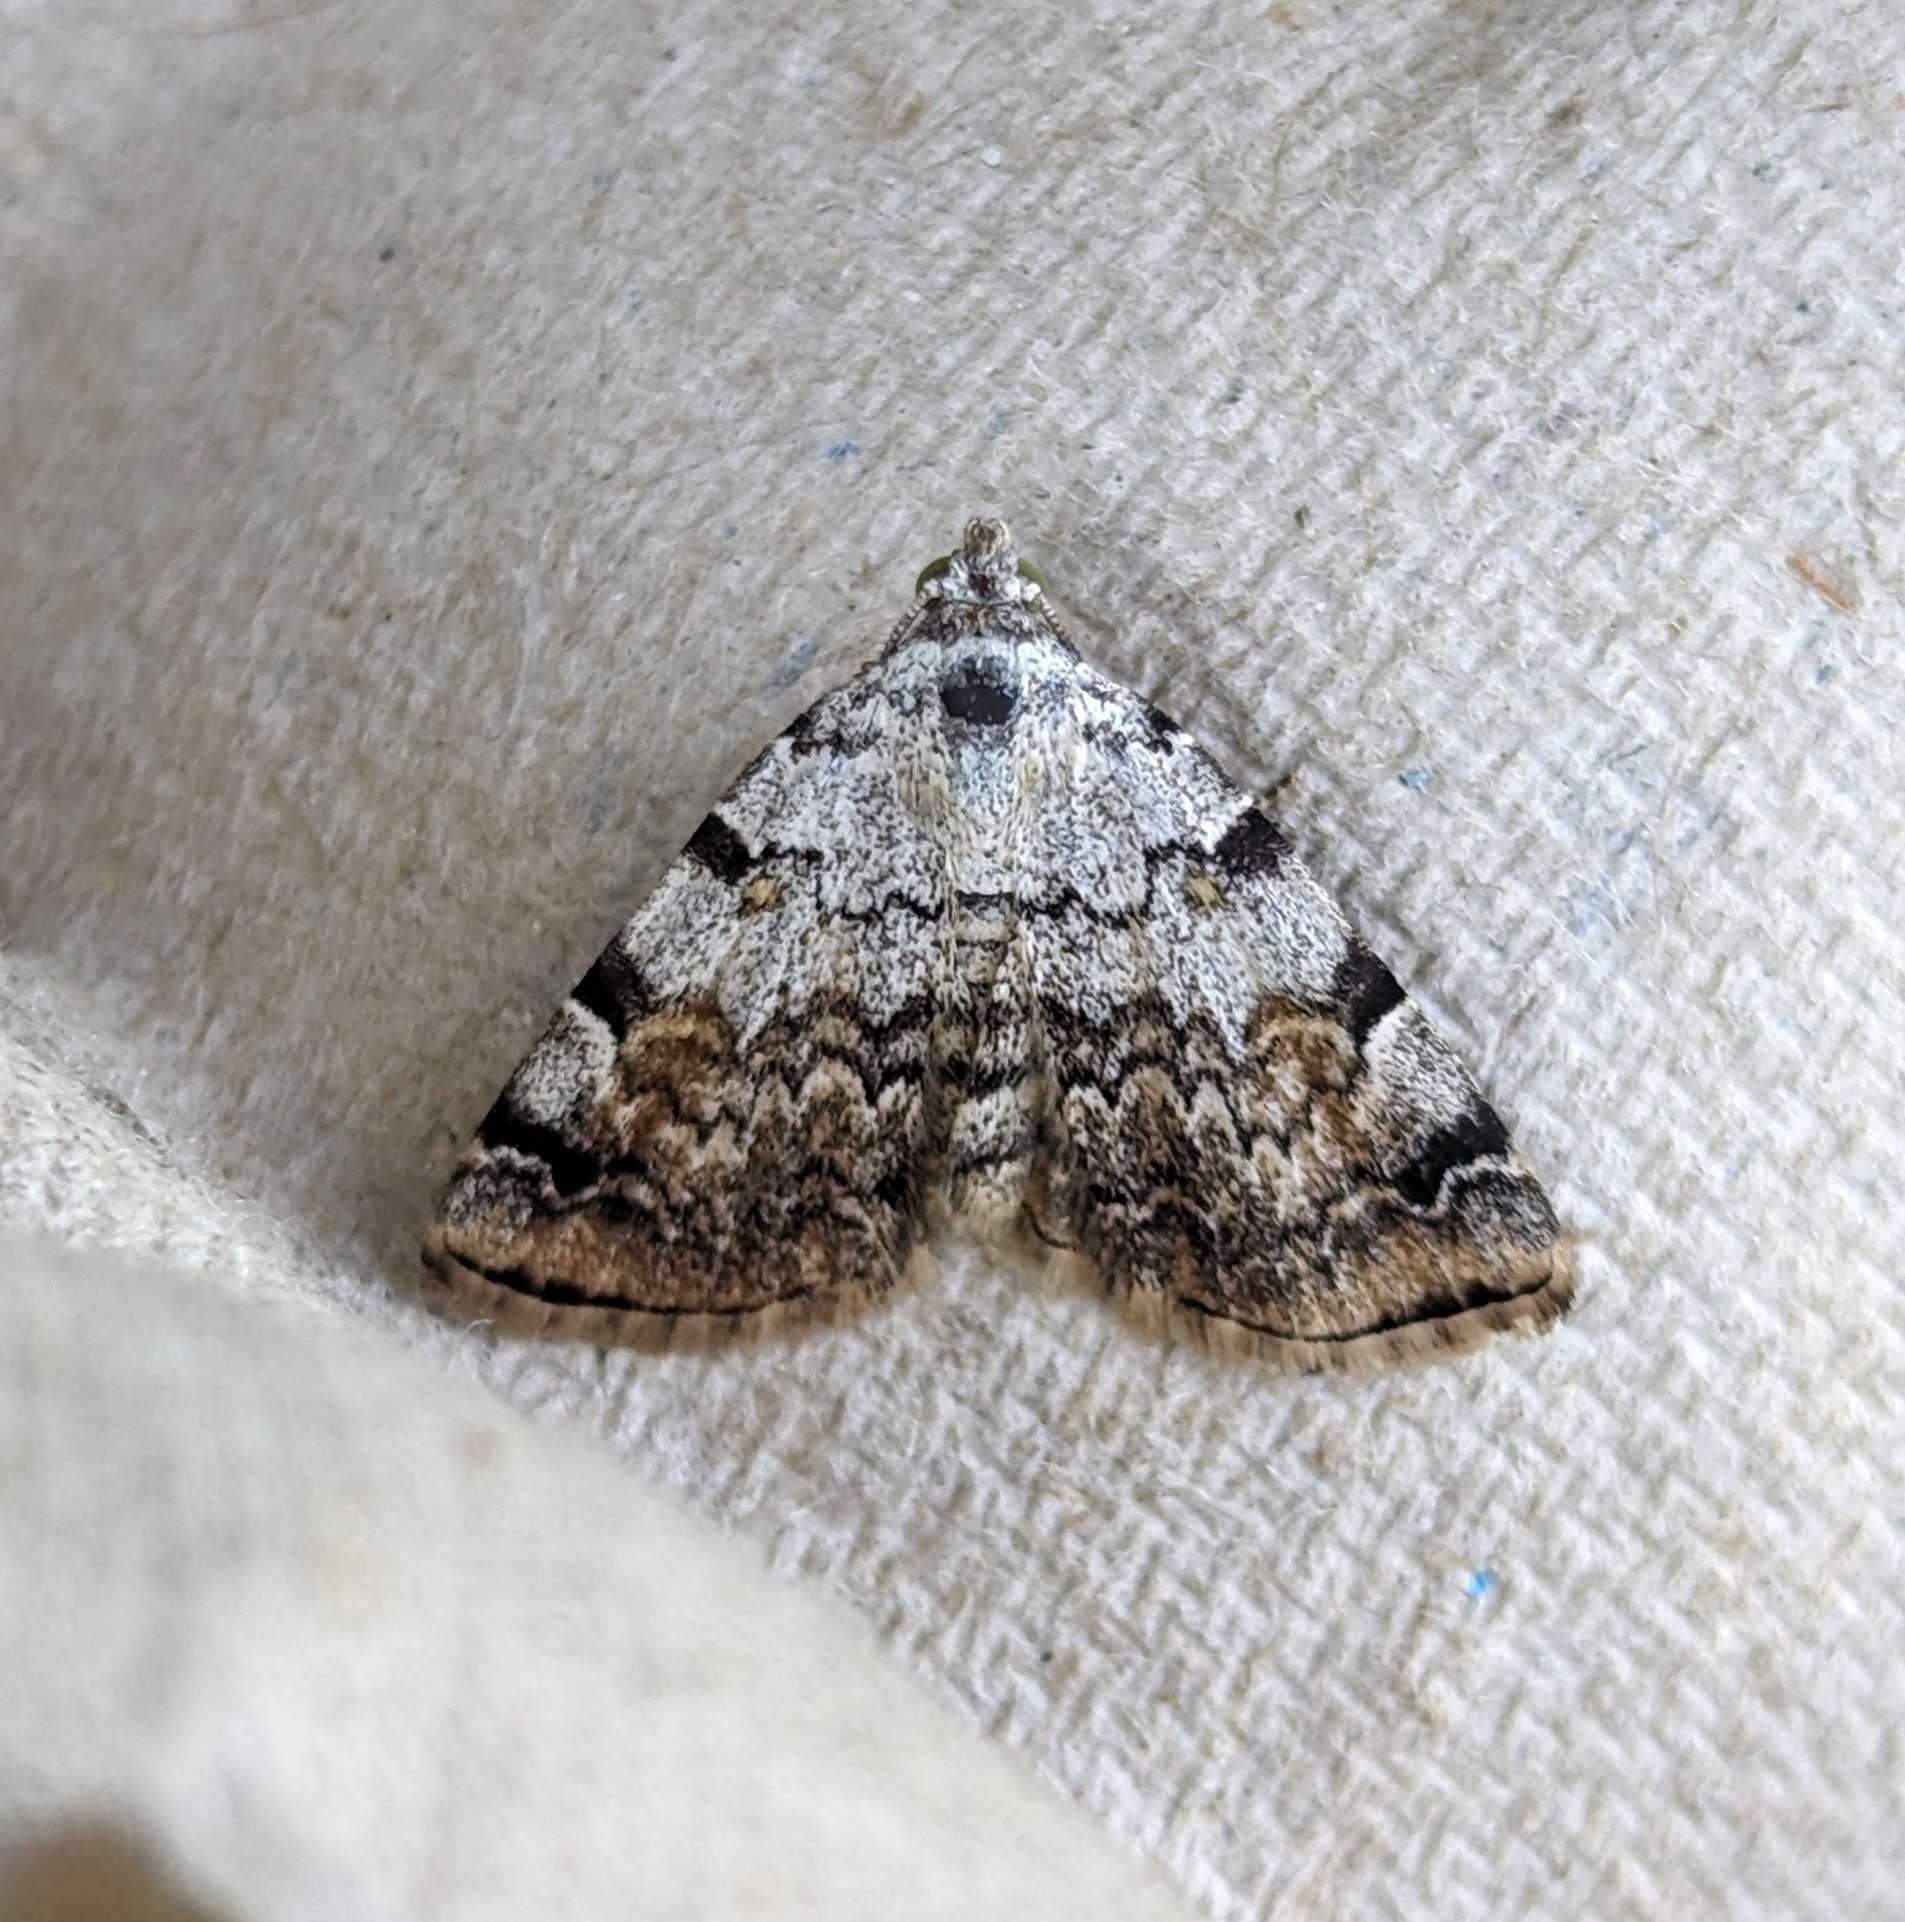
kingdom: Animalia
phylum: Arthropoda
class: Insecta
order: Lepidoptera
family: Erebidae
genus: Idia
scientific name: Idia americalis
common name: American idia moth
